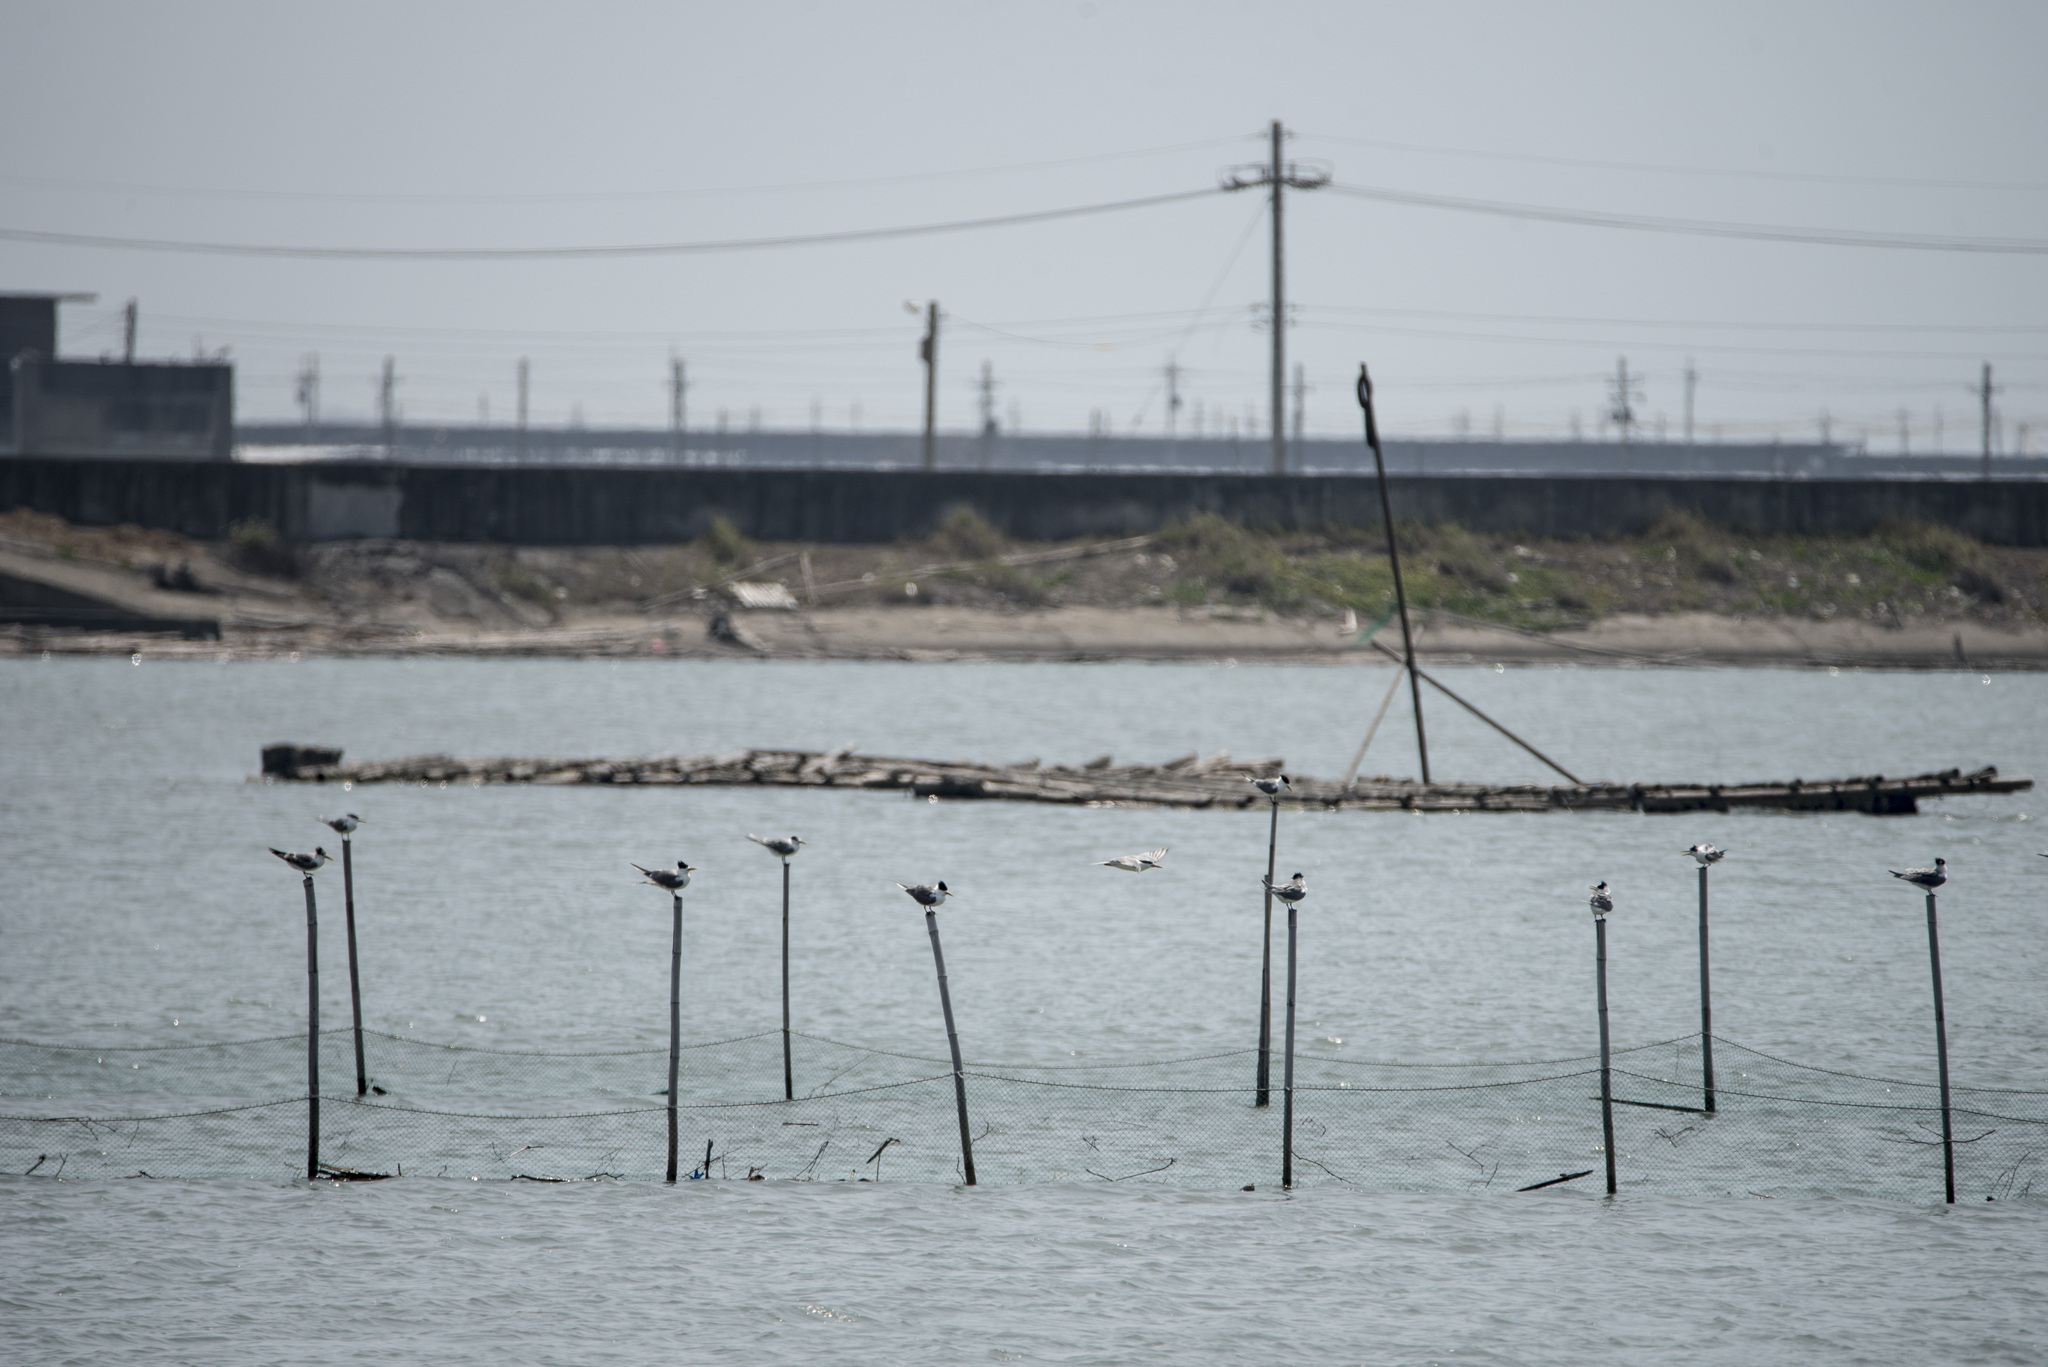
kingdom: Animalia
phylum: Chordata
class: Aves
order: Charadriiformes
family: Laridae
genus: Thalasseus
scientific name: Thalasseus bergii
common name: Greater crested tern
